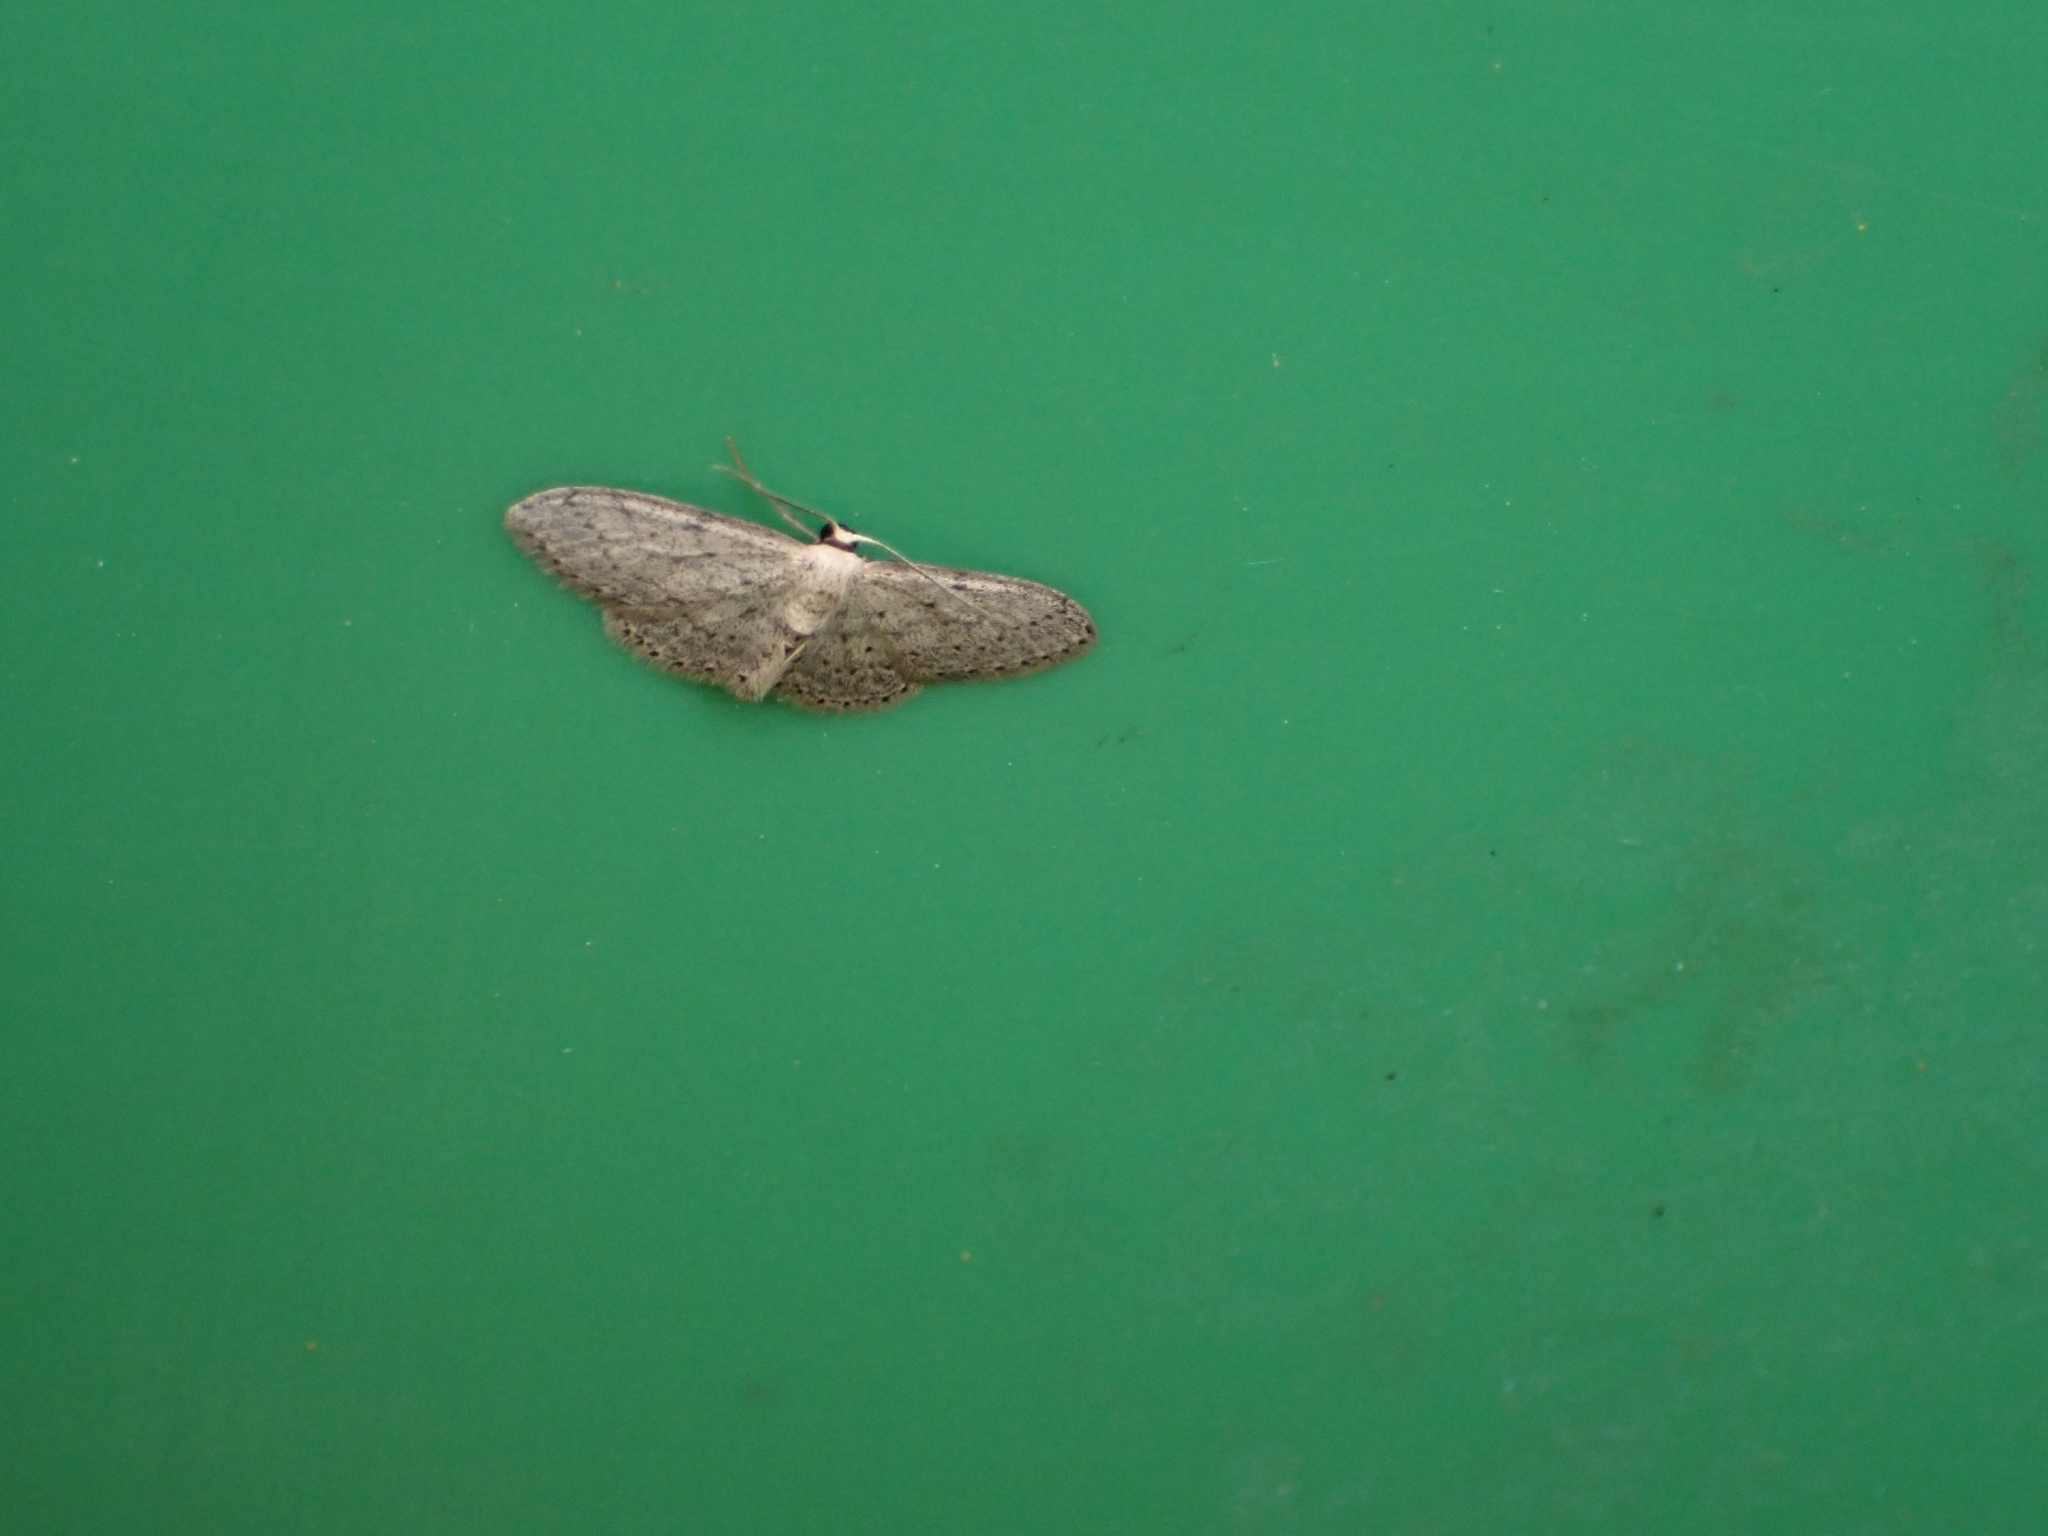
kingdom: Animalia
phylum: Arthropoda
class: Insecta
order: Lepidoptera
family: Geometridae
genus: Idaea
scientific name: Idaea seriata
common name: Small dusty wave
